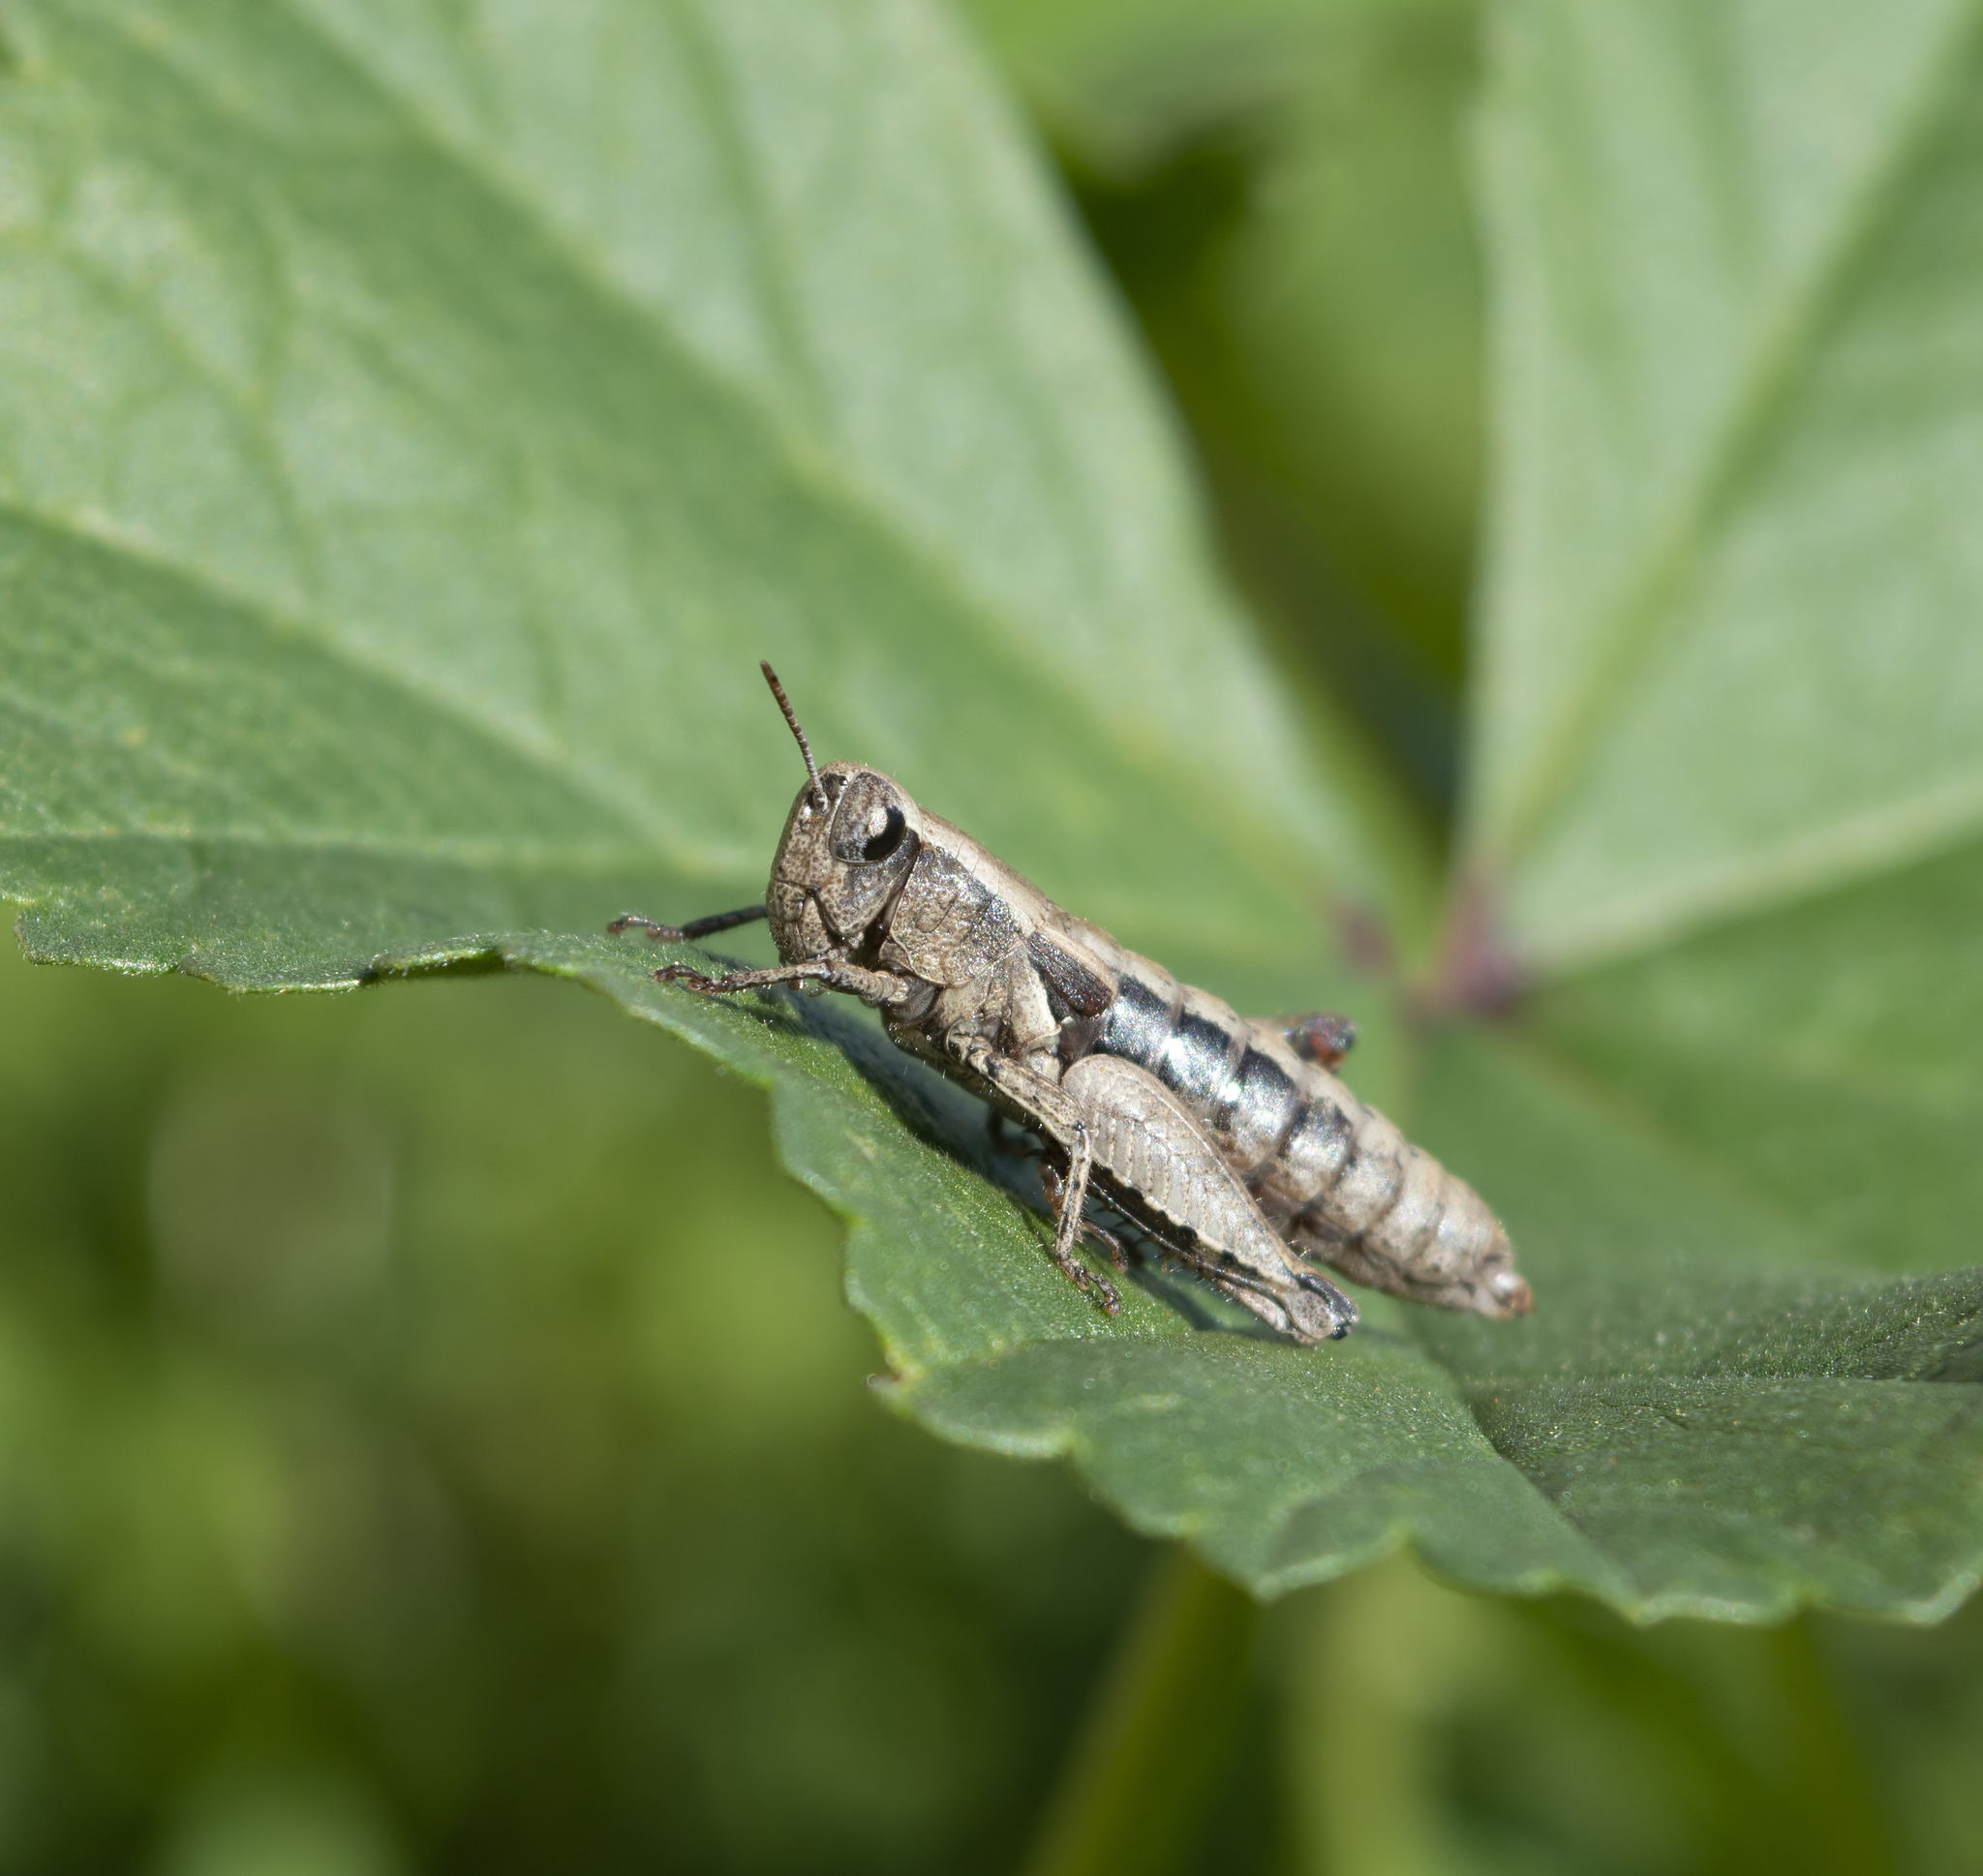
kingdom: Animalia
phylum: Arthropoda
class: Insecta
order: Orthoptera
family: Acrididae
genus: Pezotettix
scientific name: Pezotettix giornae
